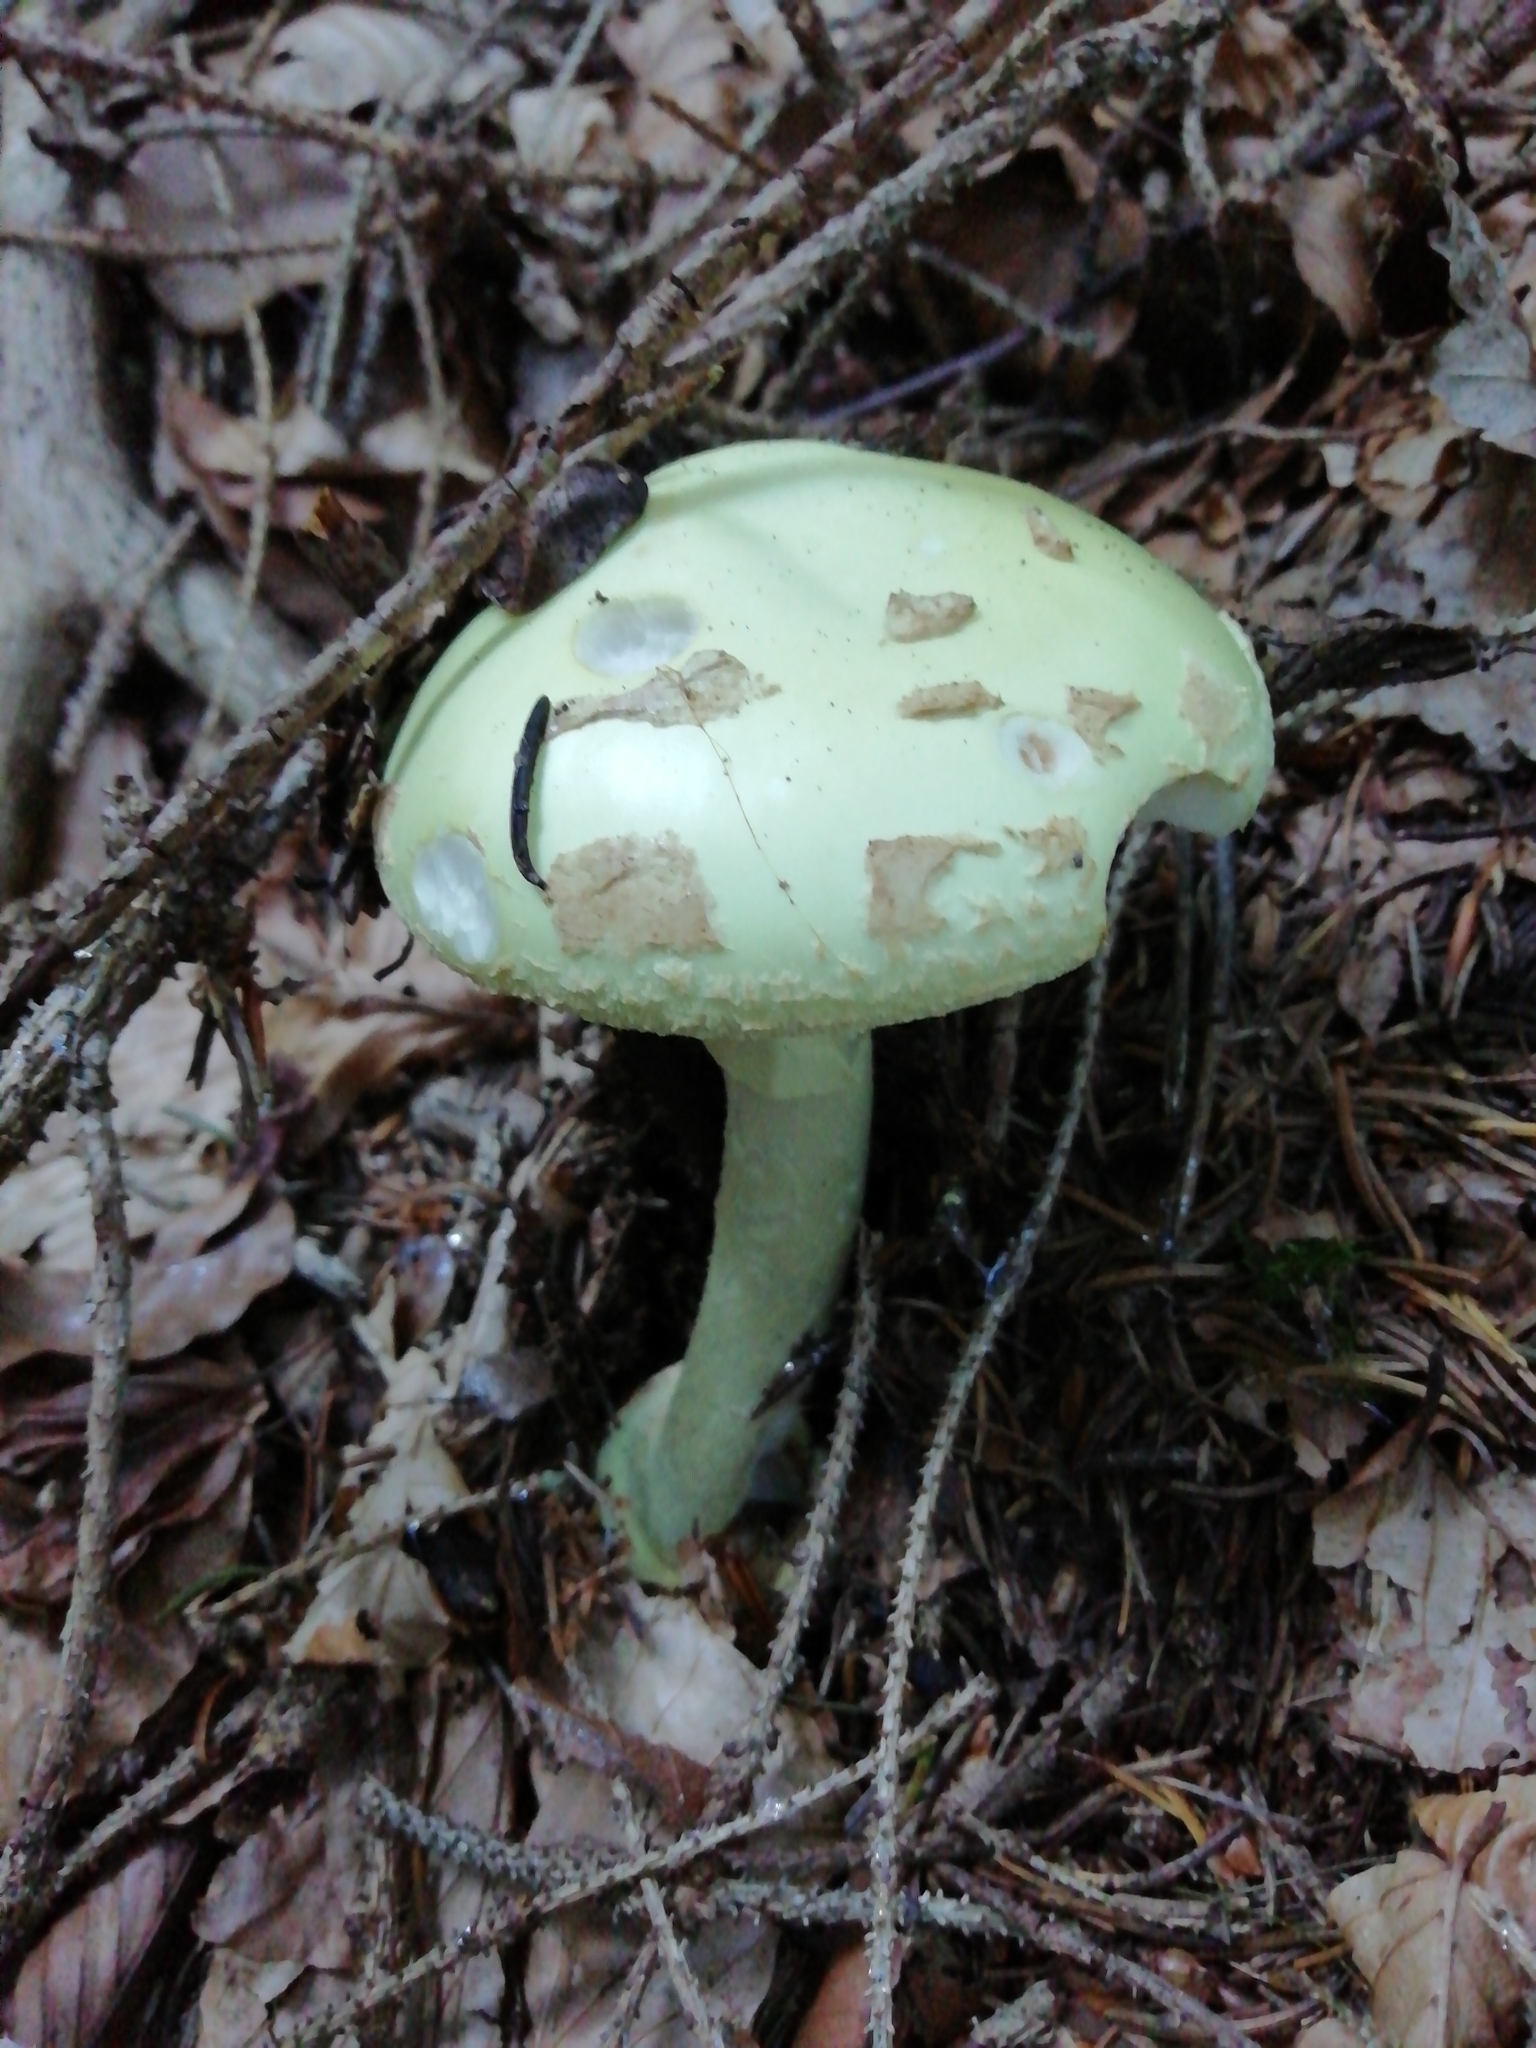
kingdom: Fungi
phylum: Basidiomycota
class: Agaricomycetes
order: Agaricales
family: Amanitaceae
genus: Amanita
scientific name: Amanita citrina
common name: False death-cap
